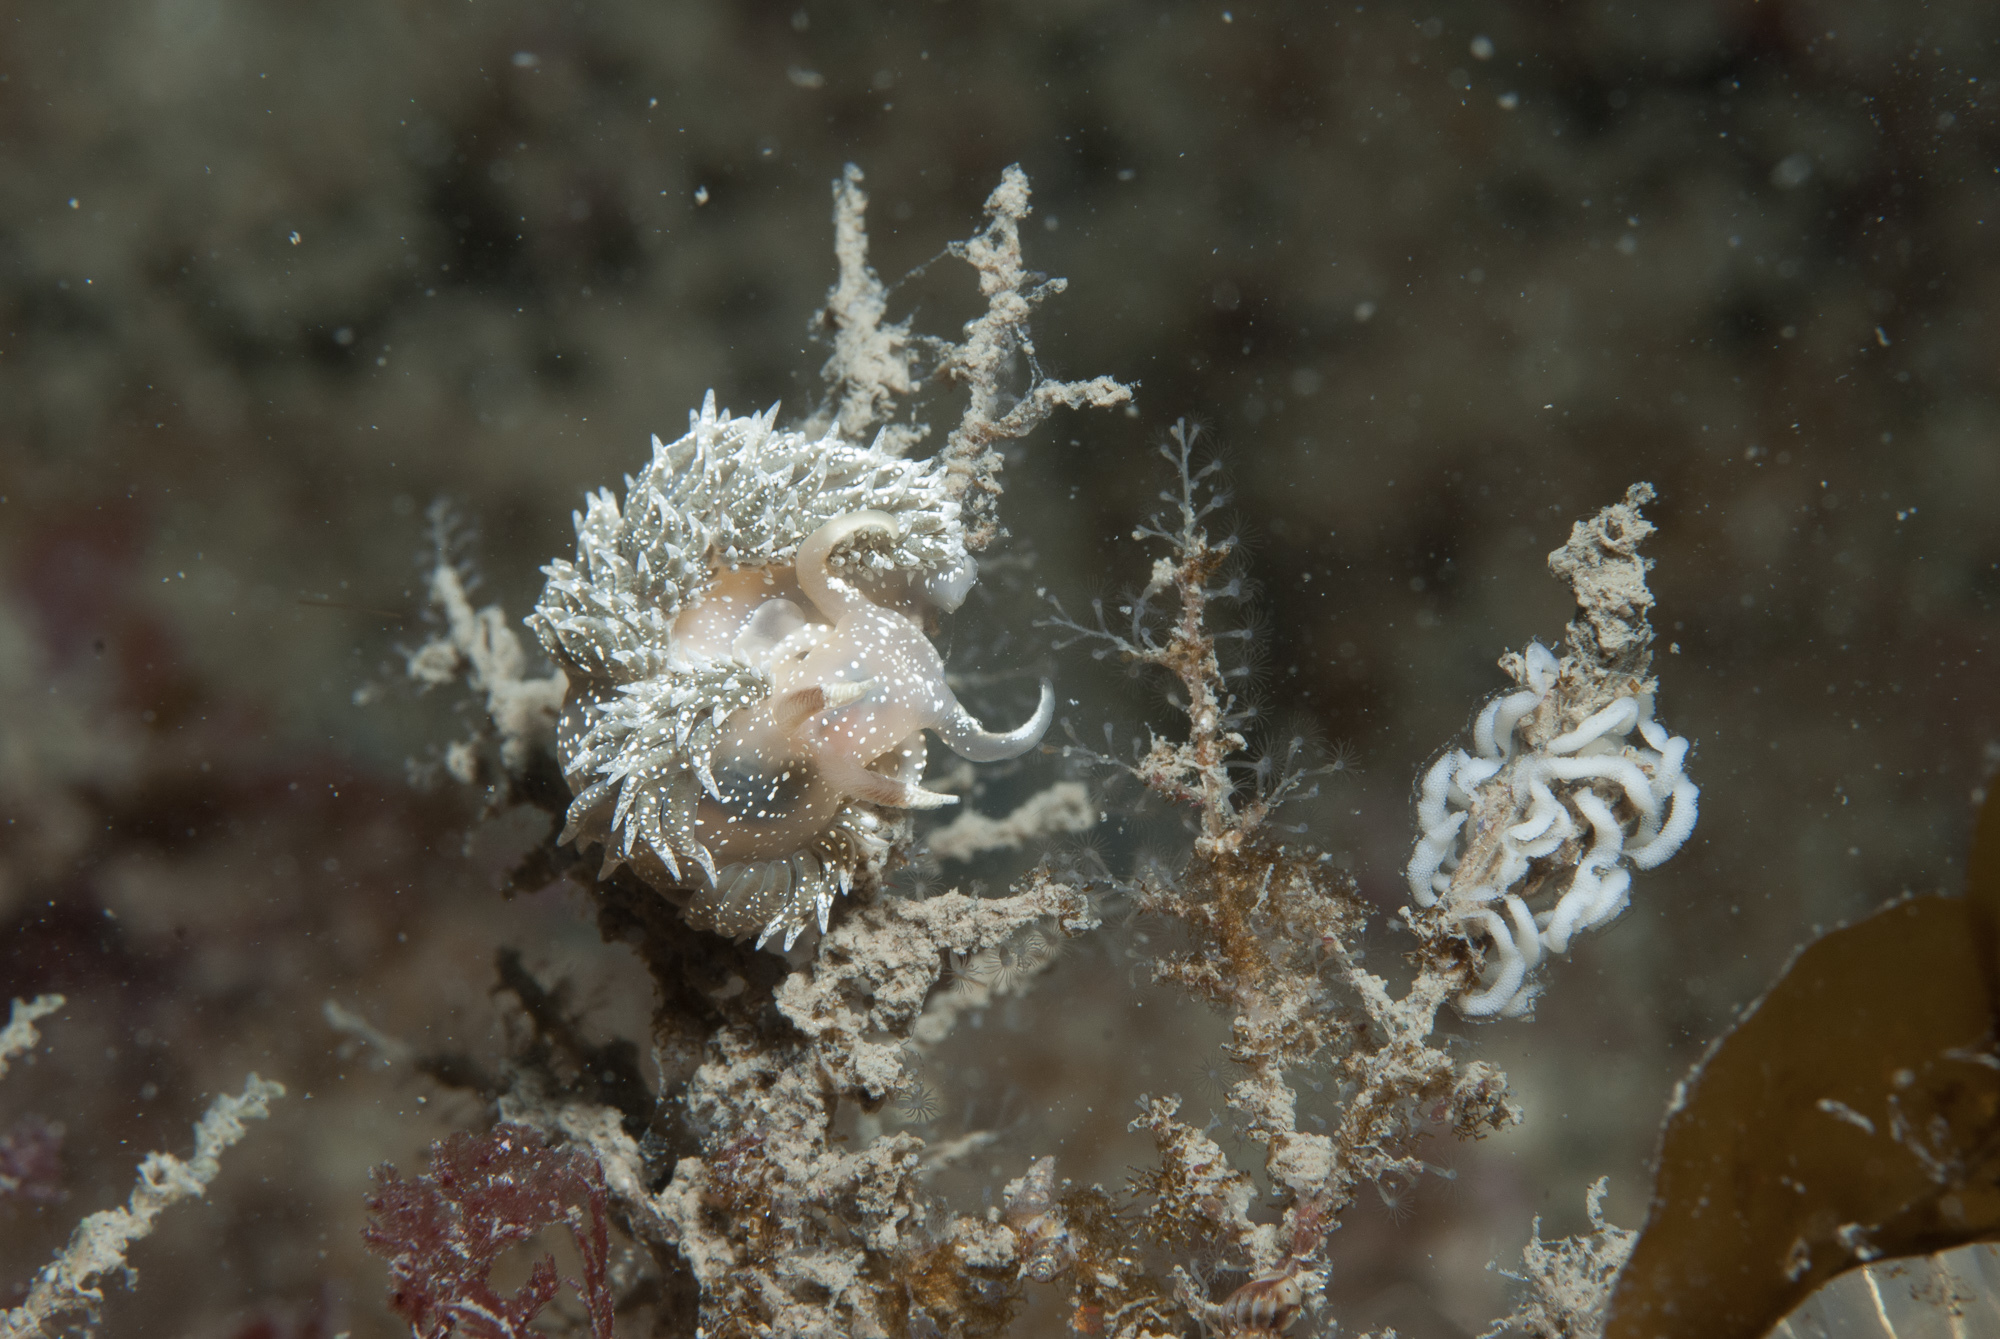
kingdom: Animalia
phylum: Mollusca
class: Gastropoda
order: Nudibranchia
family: Facelinidae
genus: Facelina
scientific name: Facelina annulicornis
